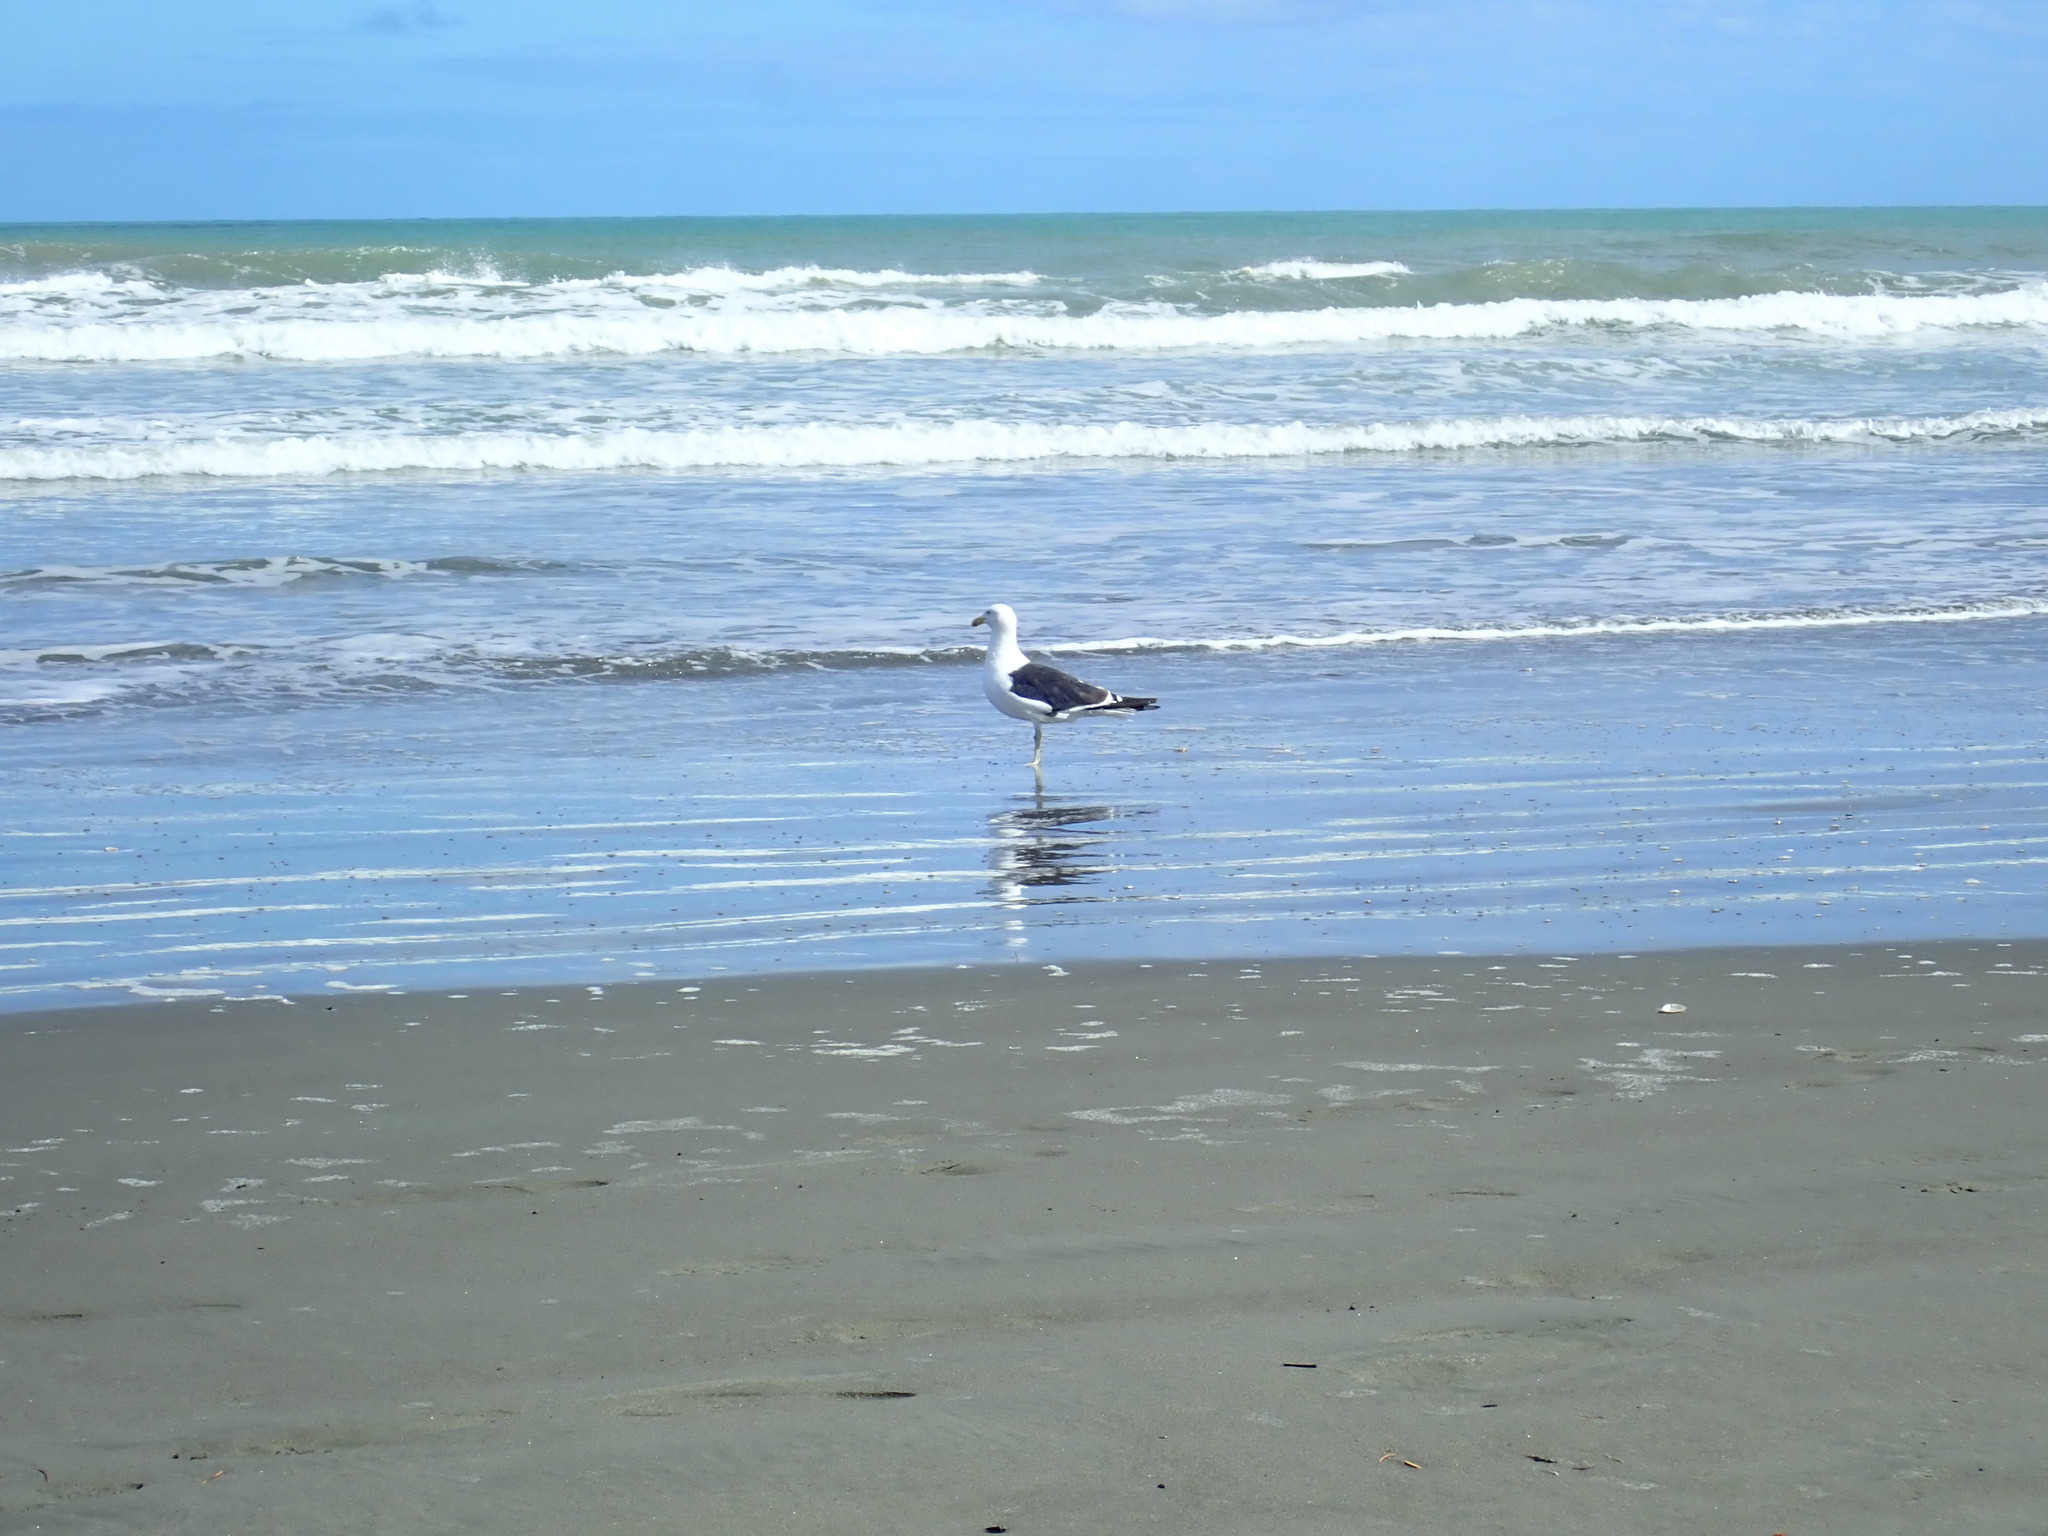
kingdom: Animalia
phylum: Chordata
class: Aves
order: Charadriiformes
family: Laridae
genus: Larus
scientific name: Larus dominicanus
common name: Kelp gull
